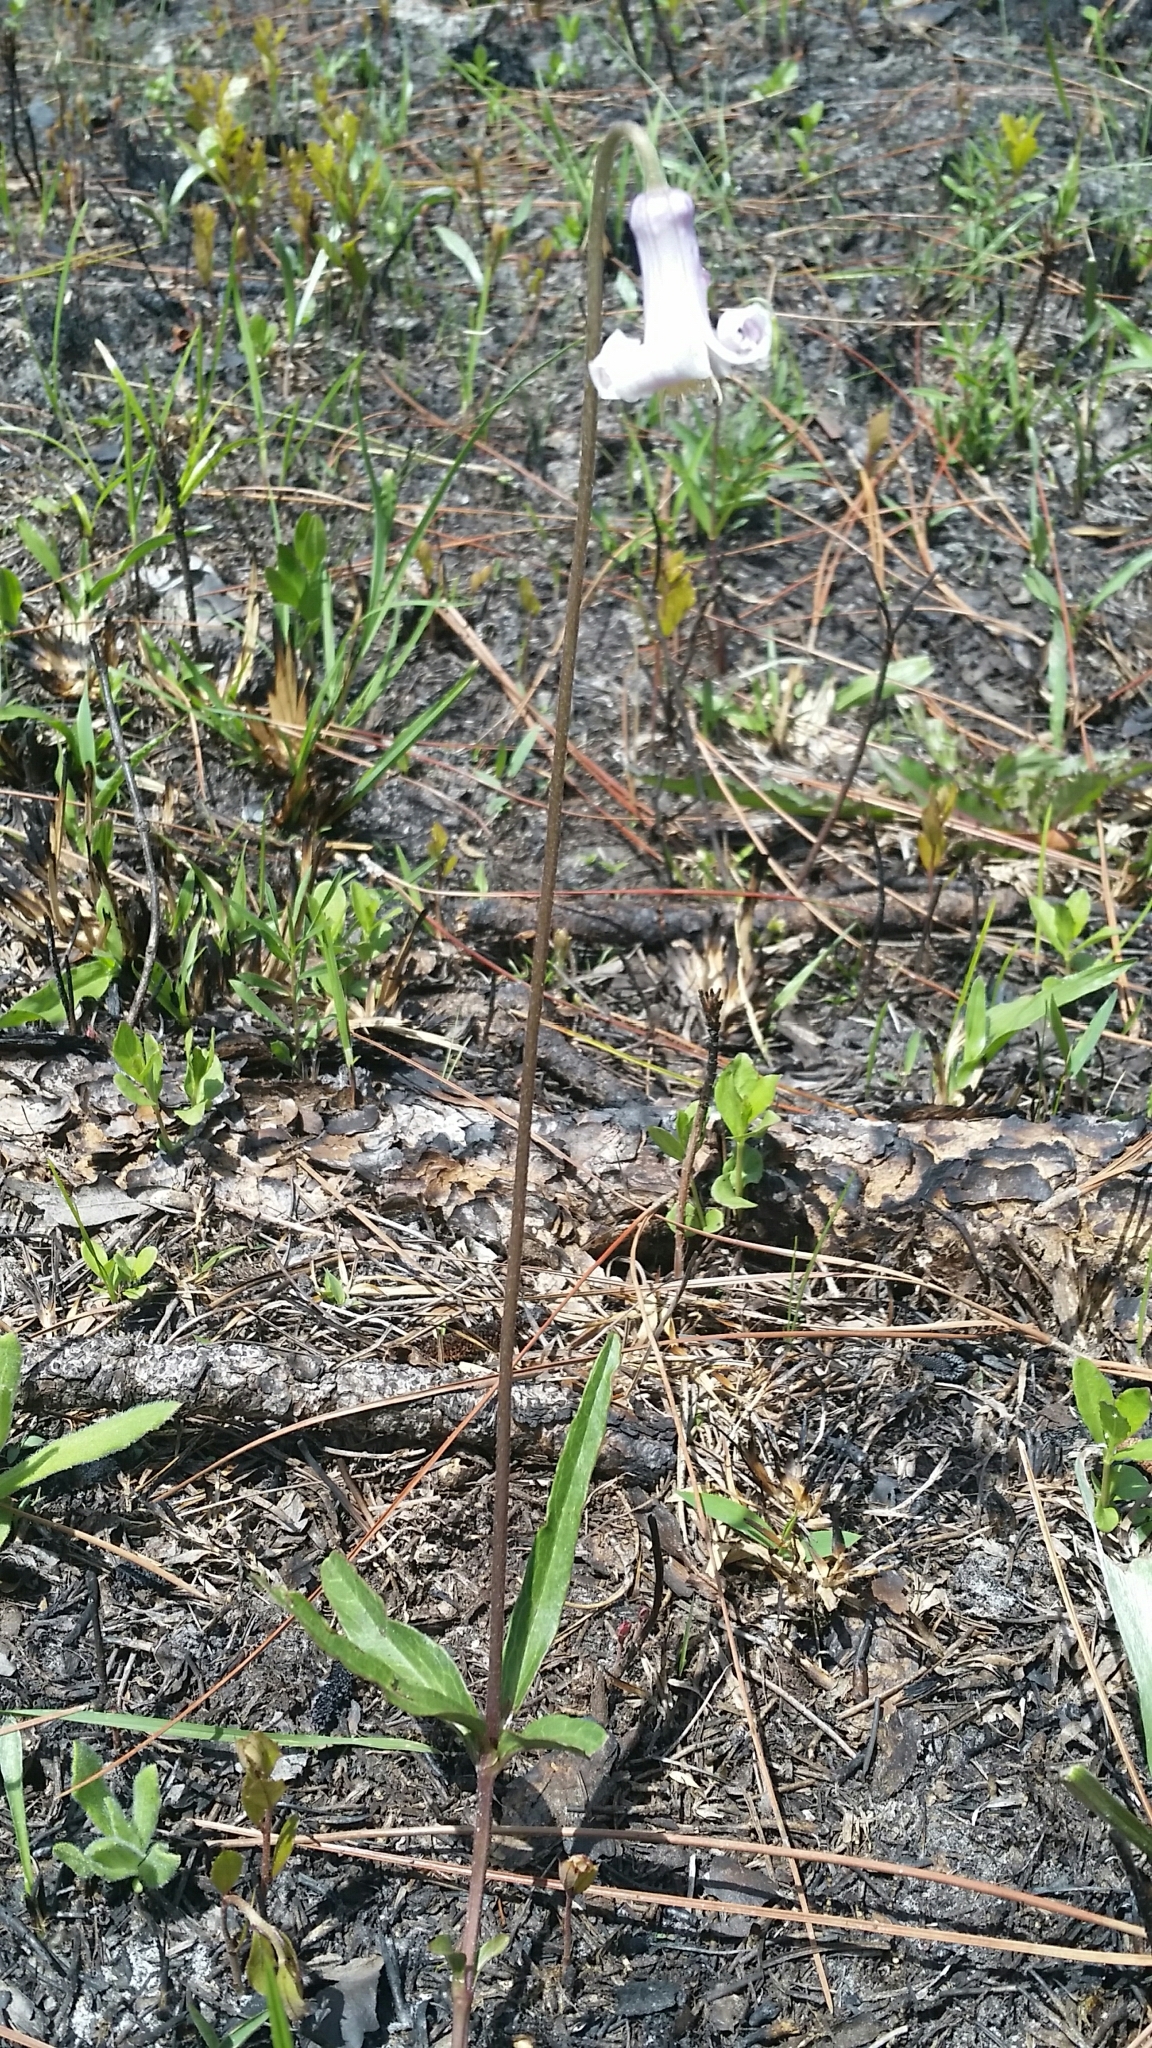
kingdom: Plantae
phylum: Tracheophyta
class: Magnoliopsida
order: Ranunculales
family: Ranunculaceae
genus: Clematis
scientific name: Clematis baldwinii
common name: Pine-hyacinth
